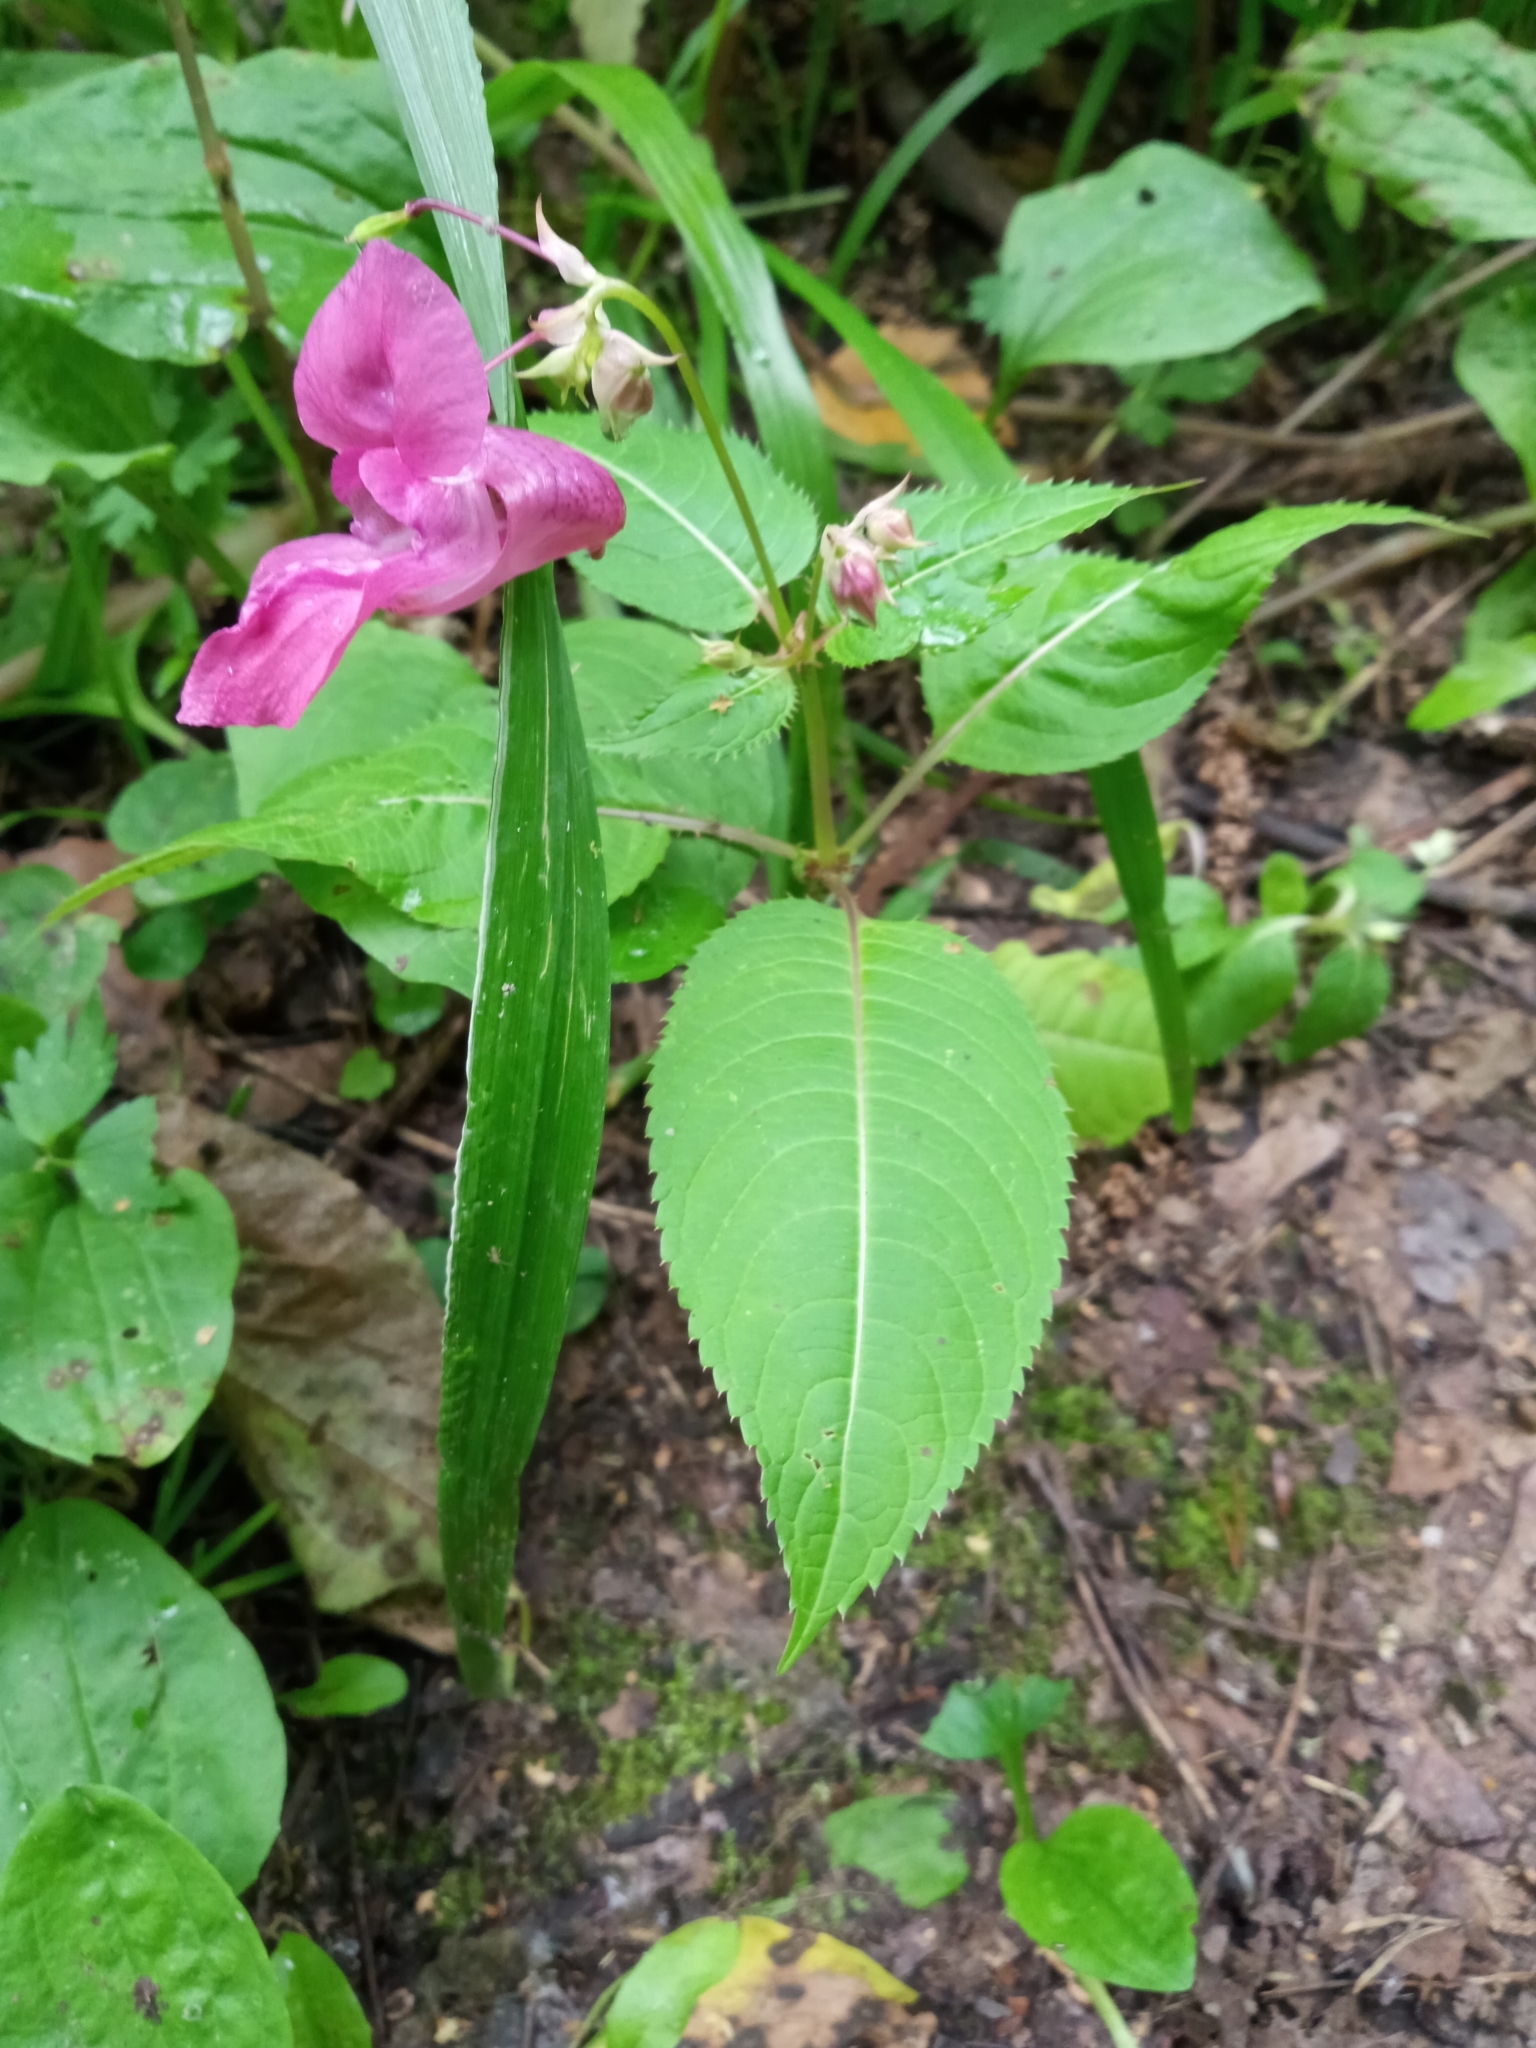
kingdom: Plantae
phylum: Tracheophyta
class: Magnoliopsida
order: Ericales
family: Balsaminaceae
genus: Impatiens
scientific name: Impatiens glandulifera
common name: Himalayan balsam
